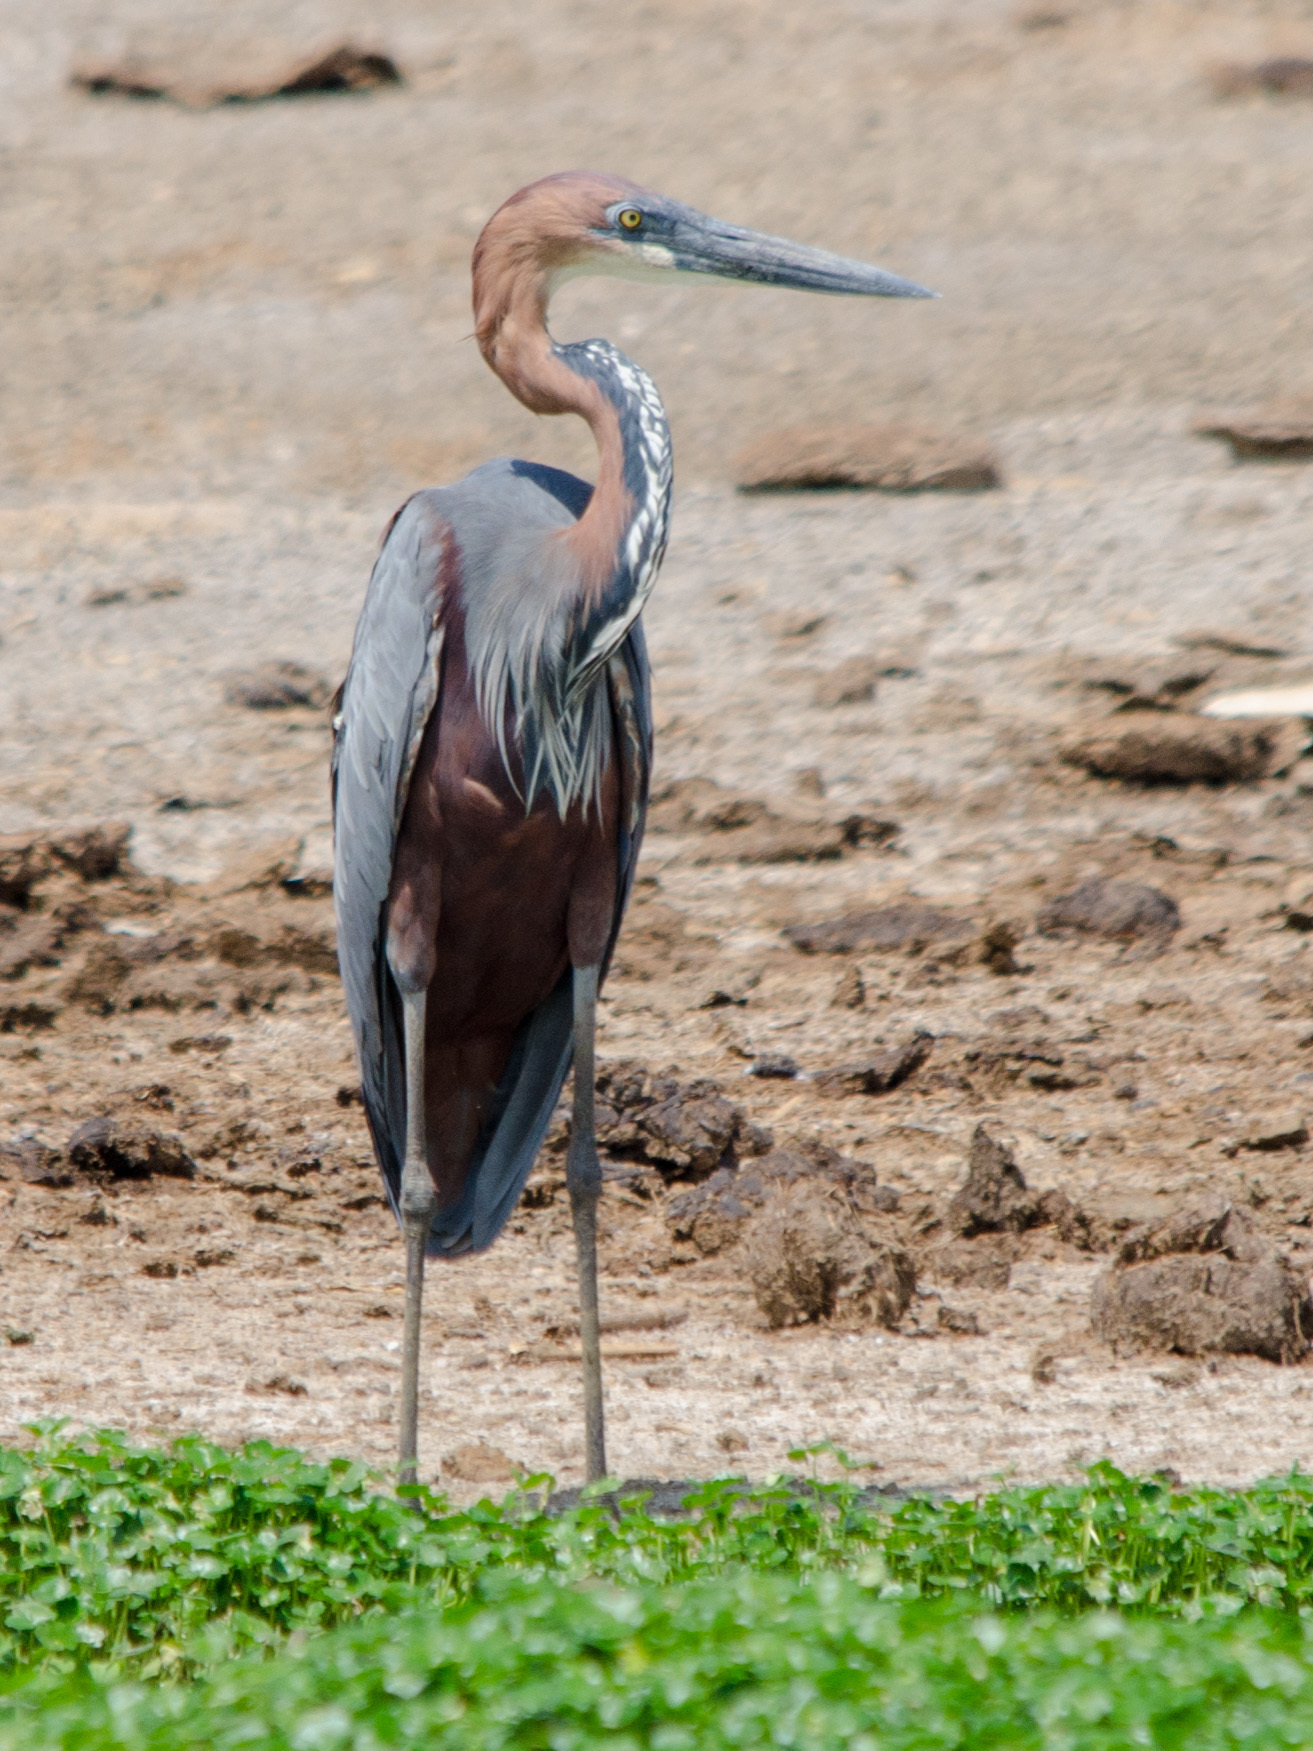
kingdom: Animalia
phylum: Chordata
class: Aves
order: Pelecaniformes
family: Ardeidae
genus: Ardea
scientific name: Ardea goliath
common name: Goliath heron
